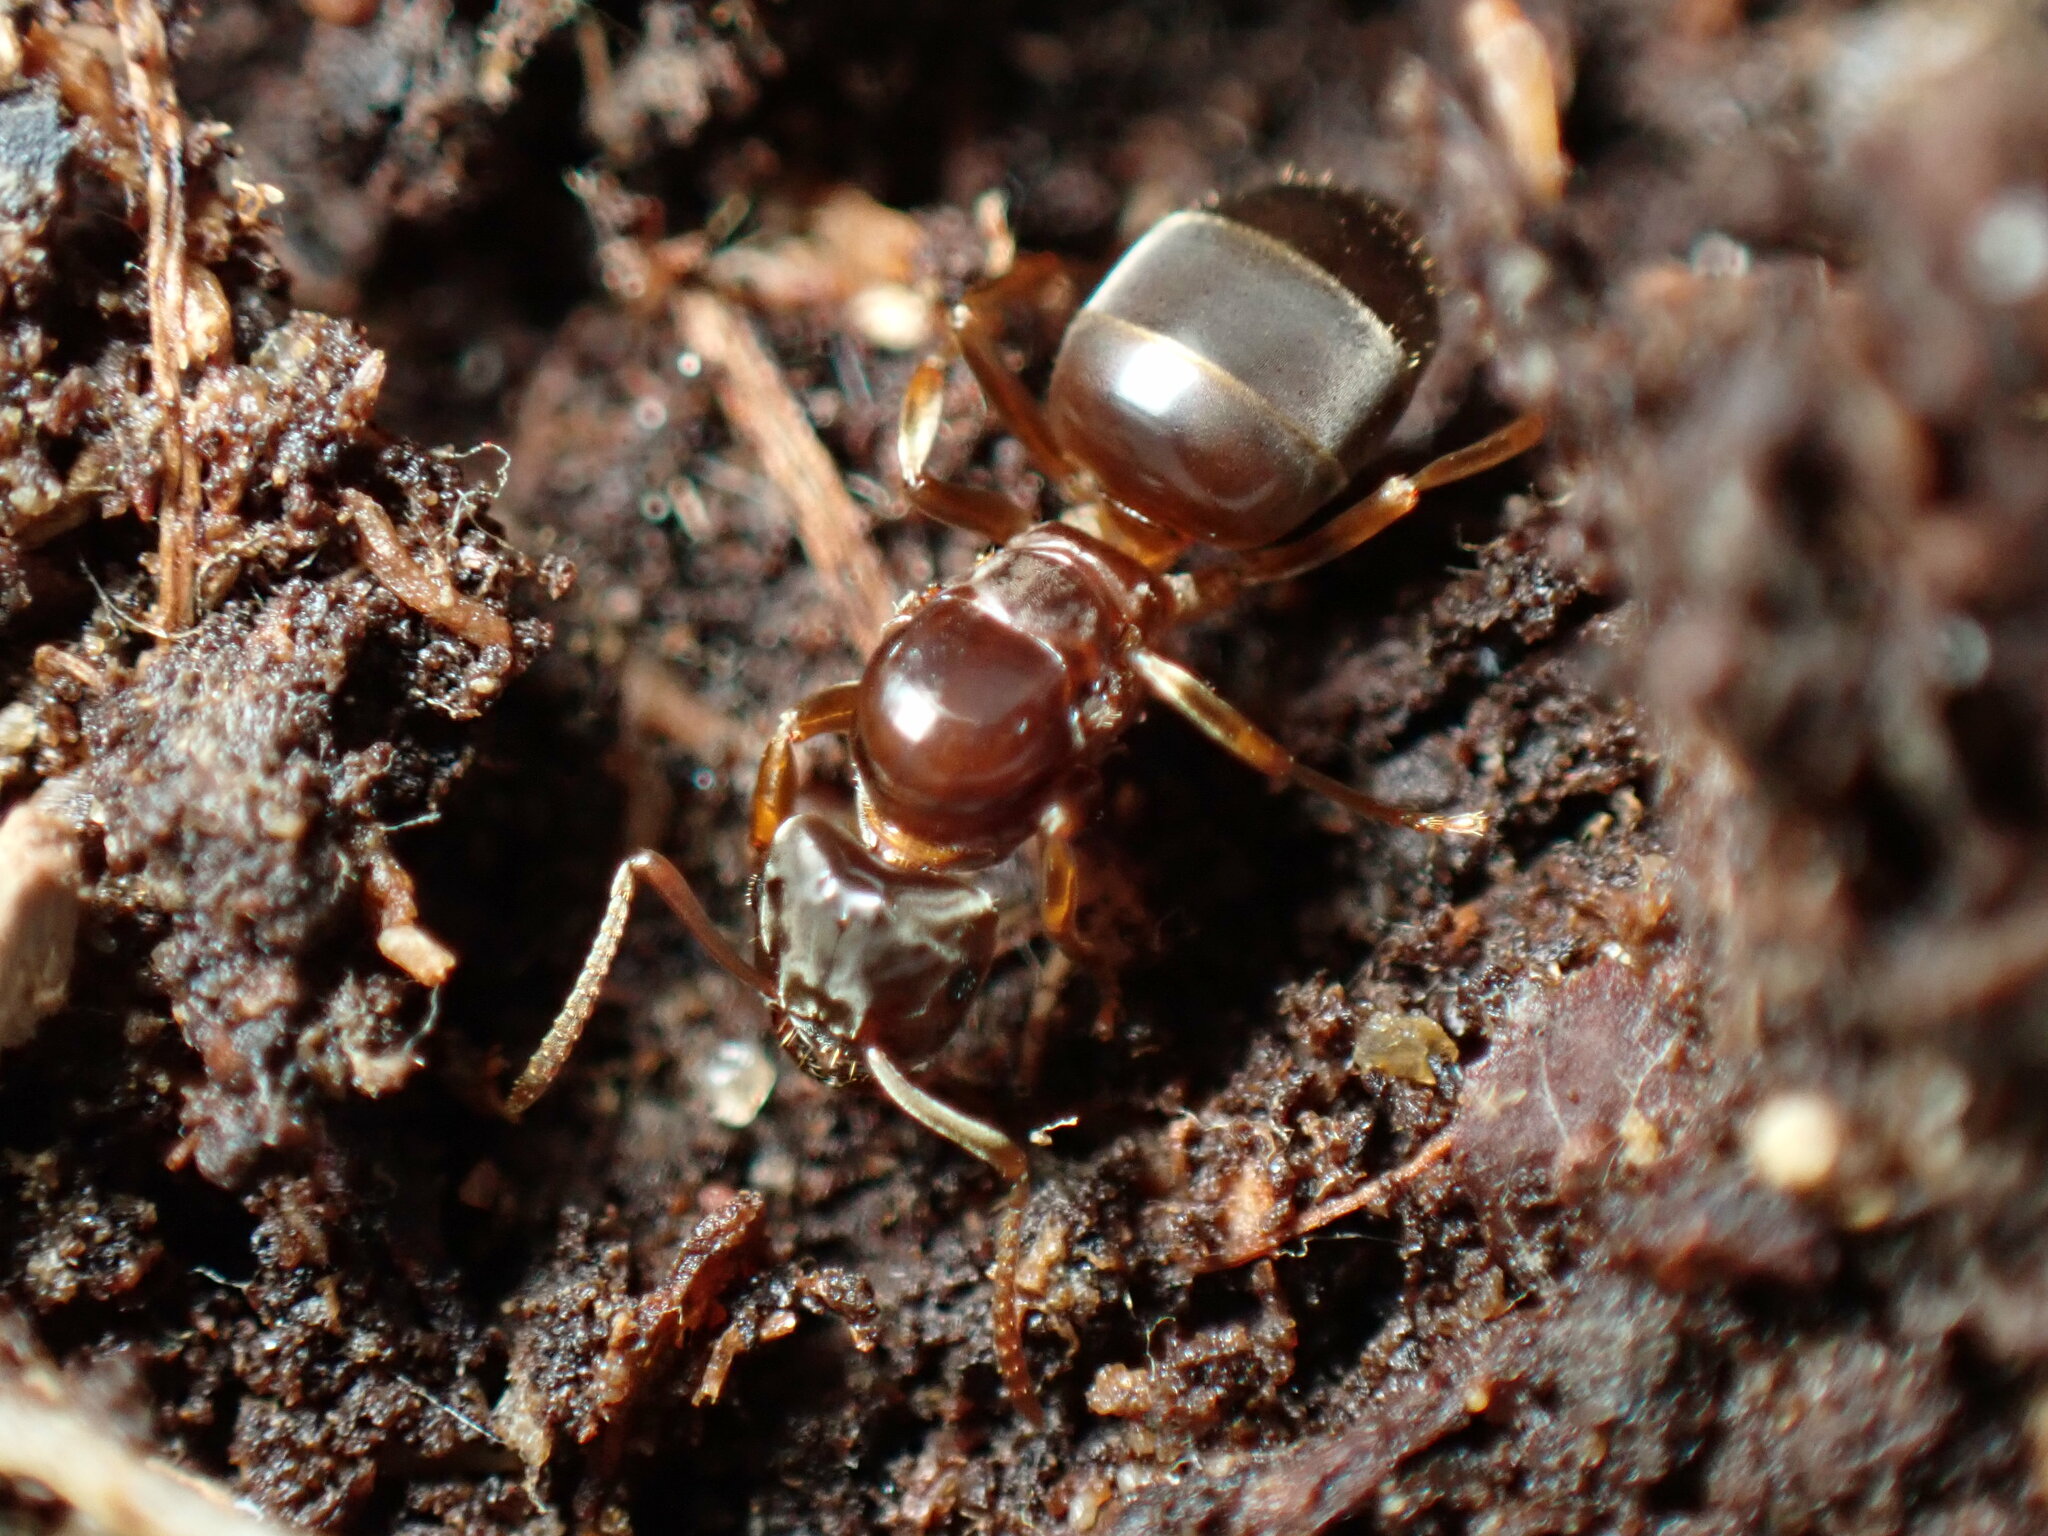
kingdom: Animalia
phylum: Arthropoda
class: Insecta
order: Hymenoptera
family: Formicidae
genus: Lasius
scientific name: Lasius aphidicola
